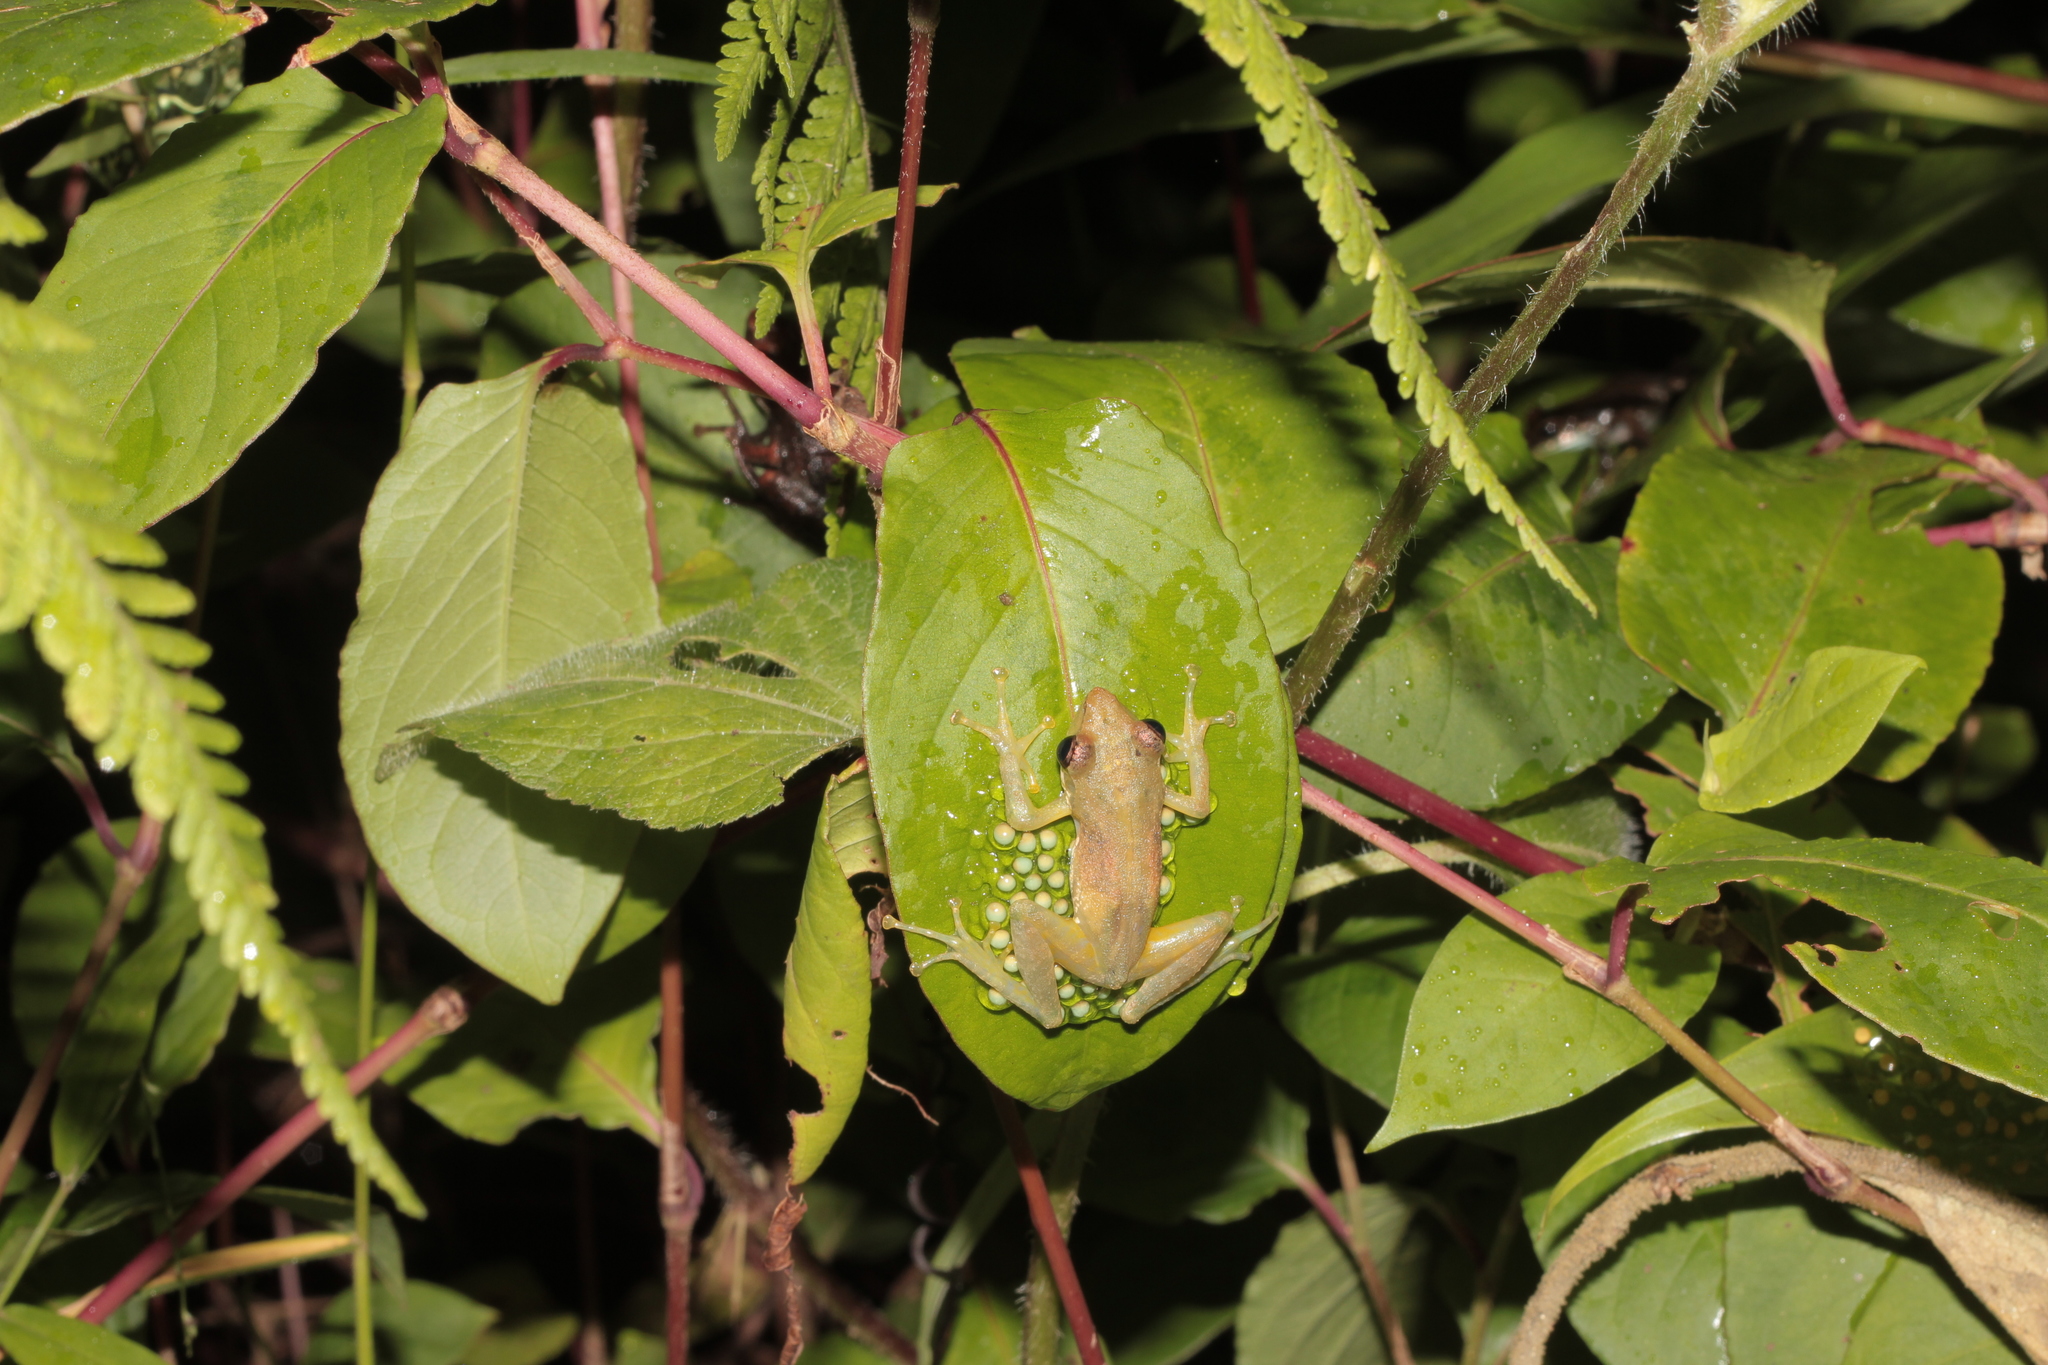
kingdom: Animalia
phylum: Chordata
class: Amphibia
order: Anura
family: Mantellidae
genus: Guibemantis
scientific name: Guibemantis liber
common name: Free madagascar frog
